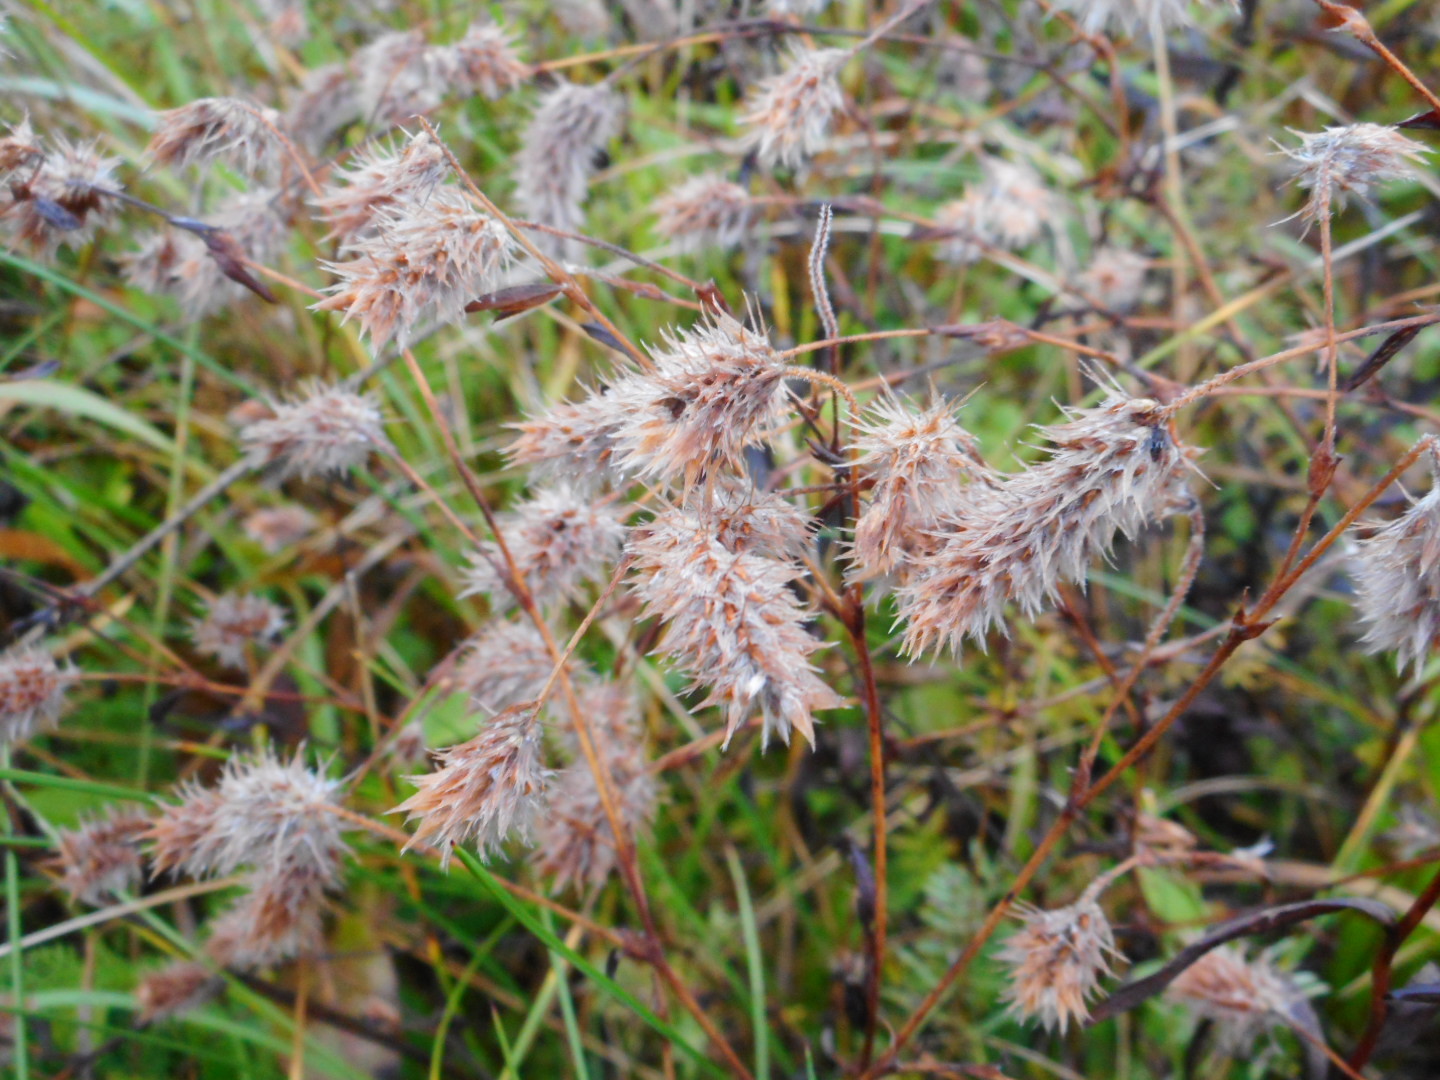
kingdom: Plantae
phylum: Tracheophyta
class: Magnoliopsida
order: Fabales
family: Fabaceae
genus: Trifolium
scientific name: Trifolium arvense
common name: Hare's-foot clover
